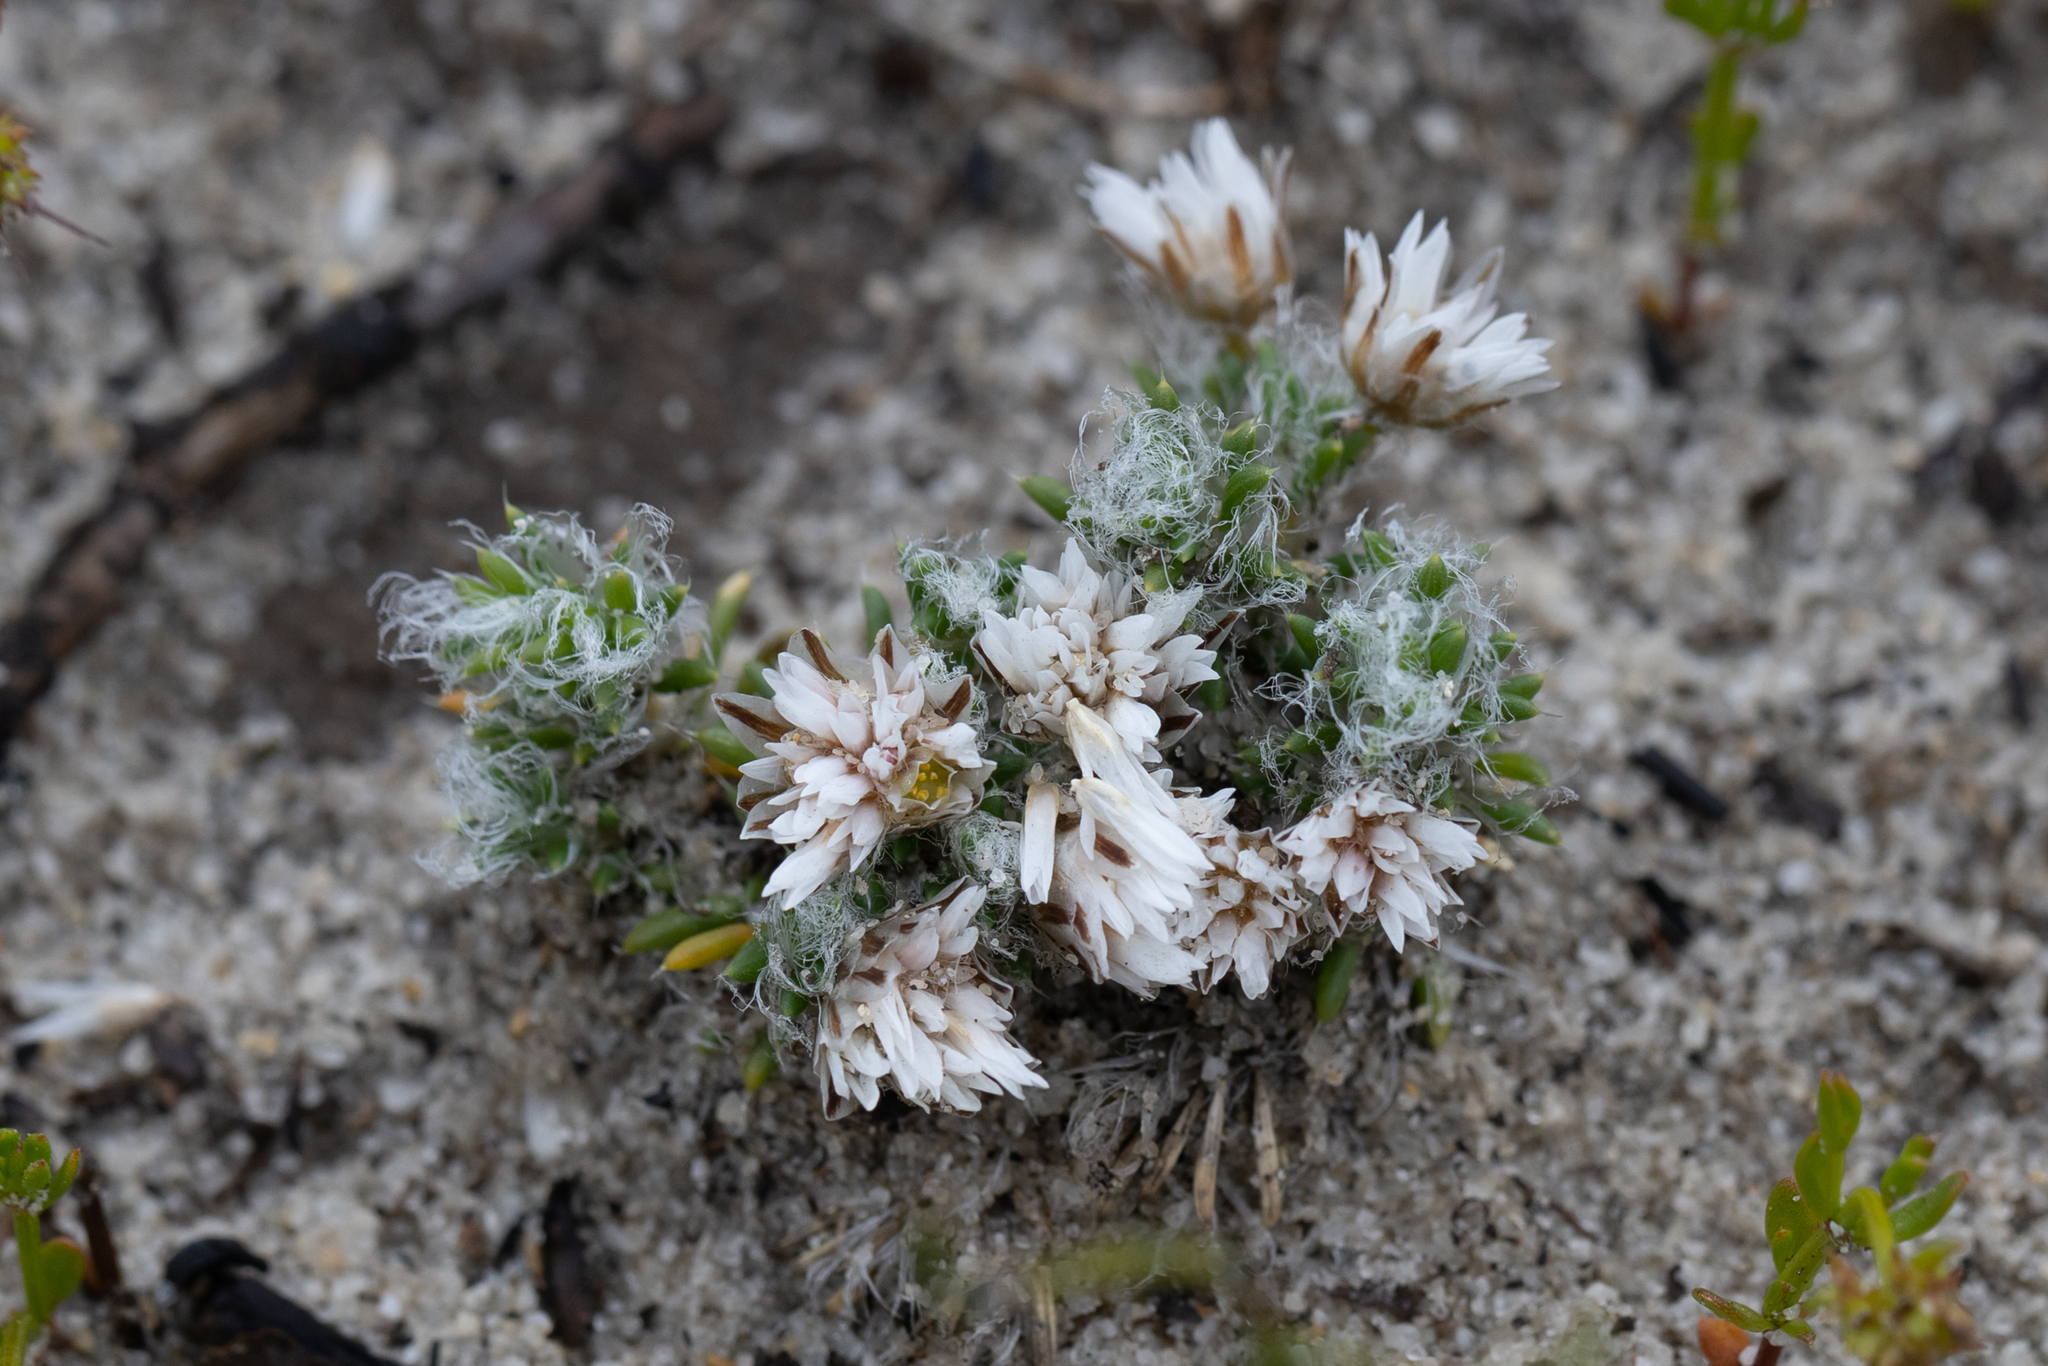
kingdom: Plantae
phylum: Tracheophyta
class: Liliopsida
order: Asparagales
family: Asparagaceae
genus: Laxmannia
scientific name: Laxmannia brachyphylla
